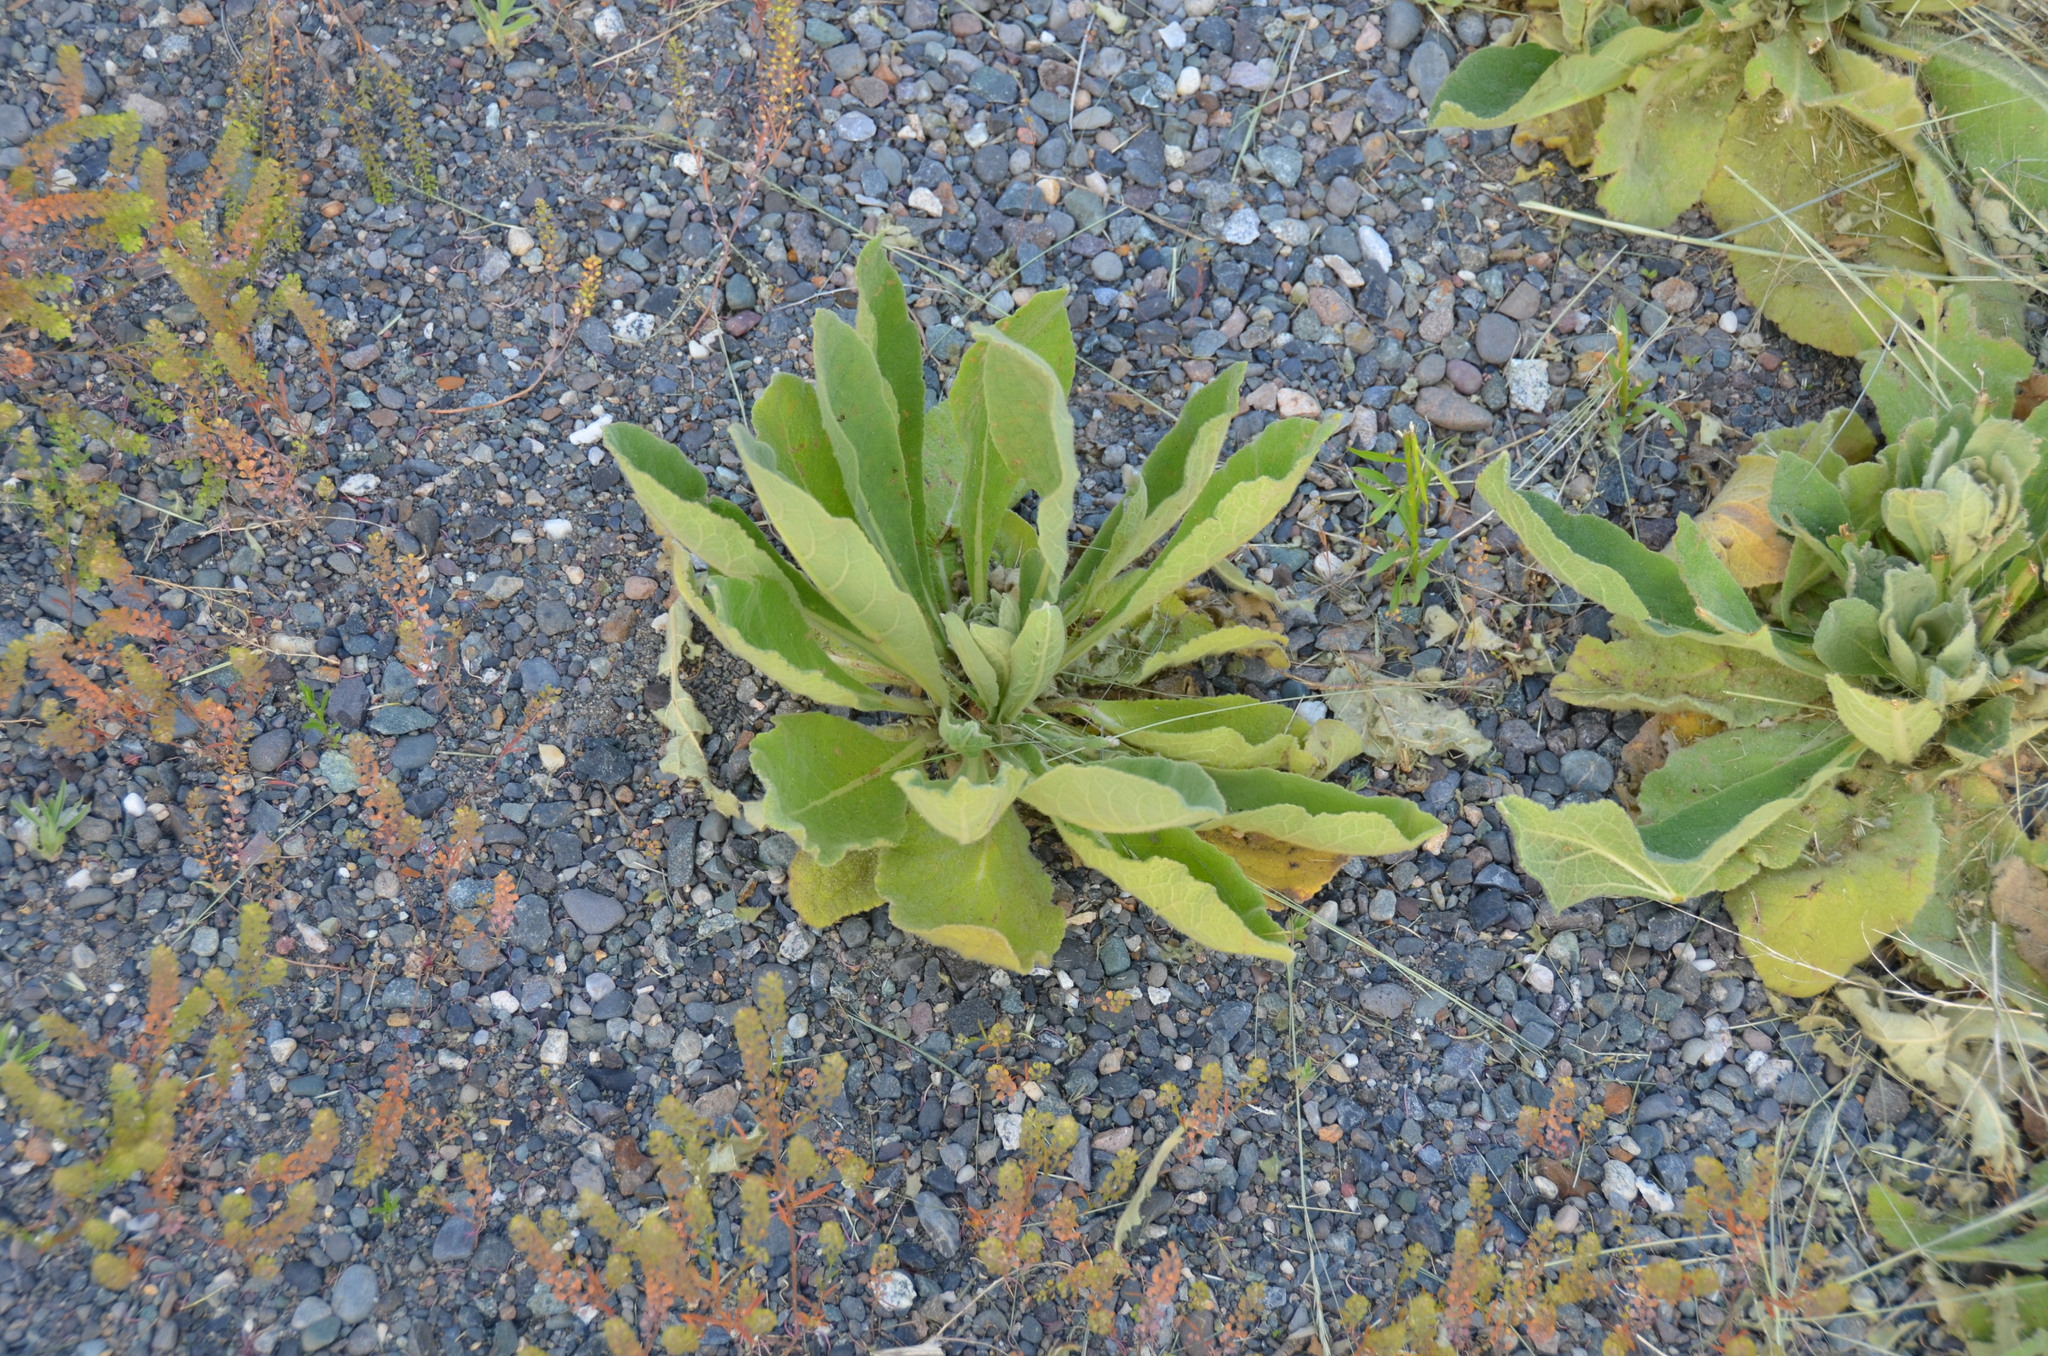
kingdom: Plantae
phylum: Tracheophyta
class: Magnoliopsida
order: Lamiales
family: Scrophulariaceae
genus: Verbascum
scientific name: Verbascum thapsus
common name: Common mullein
